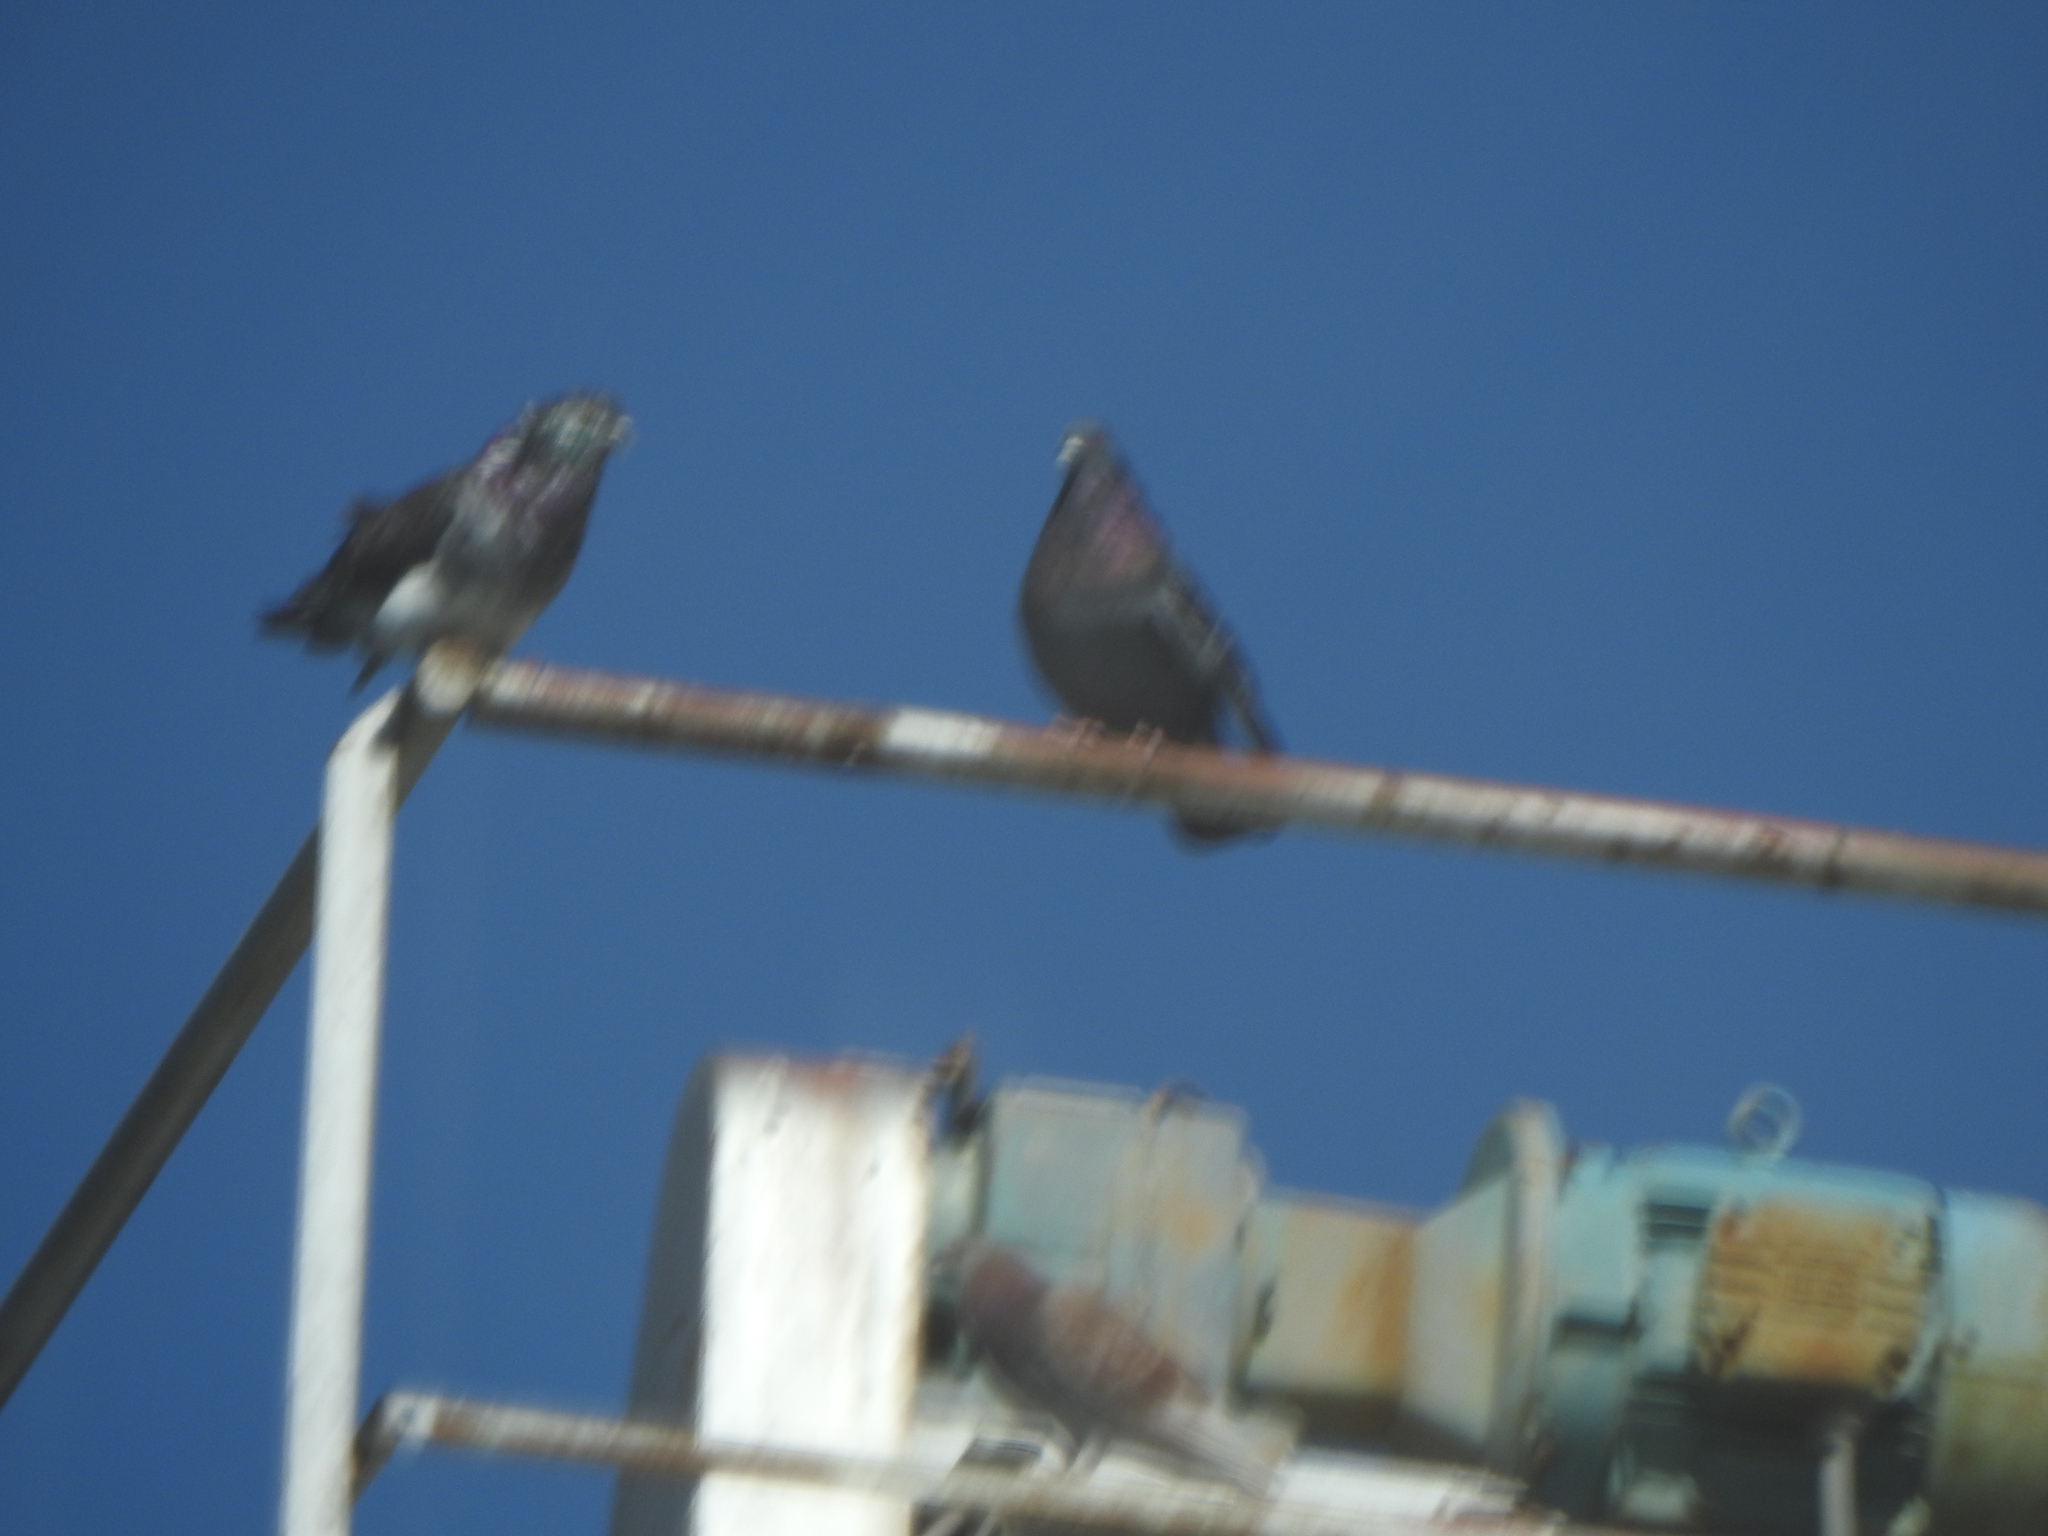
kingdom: Animalia
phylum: Chordata
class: Aves
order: Columbiformes
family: Columbidae
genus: Columba
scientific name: Columba livia
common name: Rock pigeon
